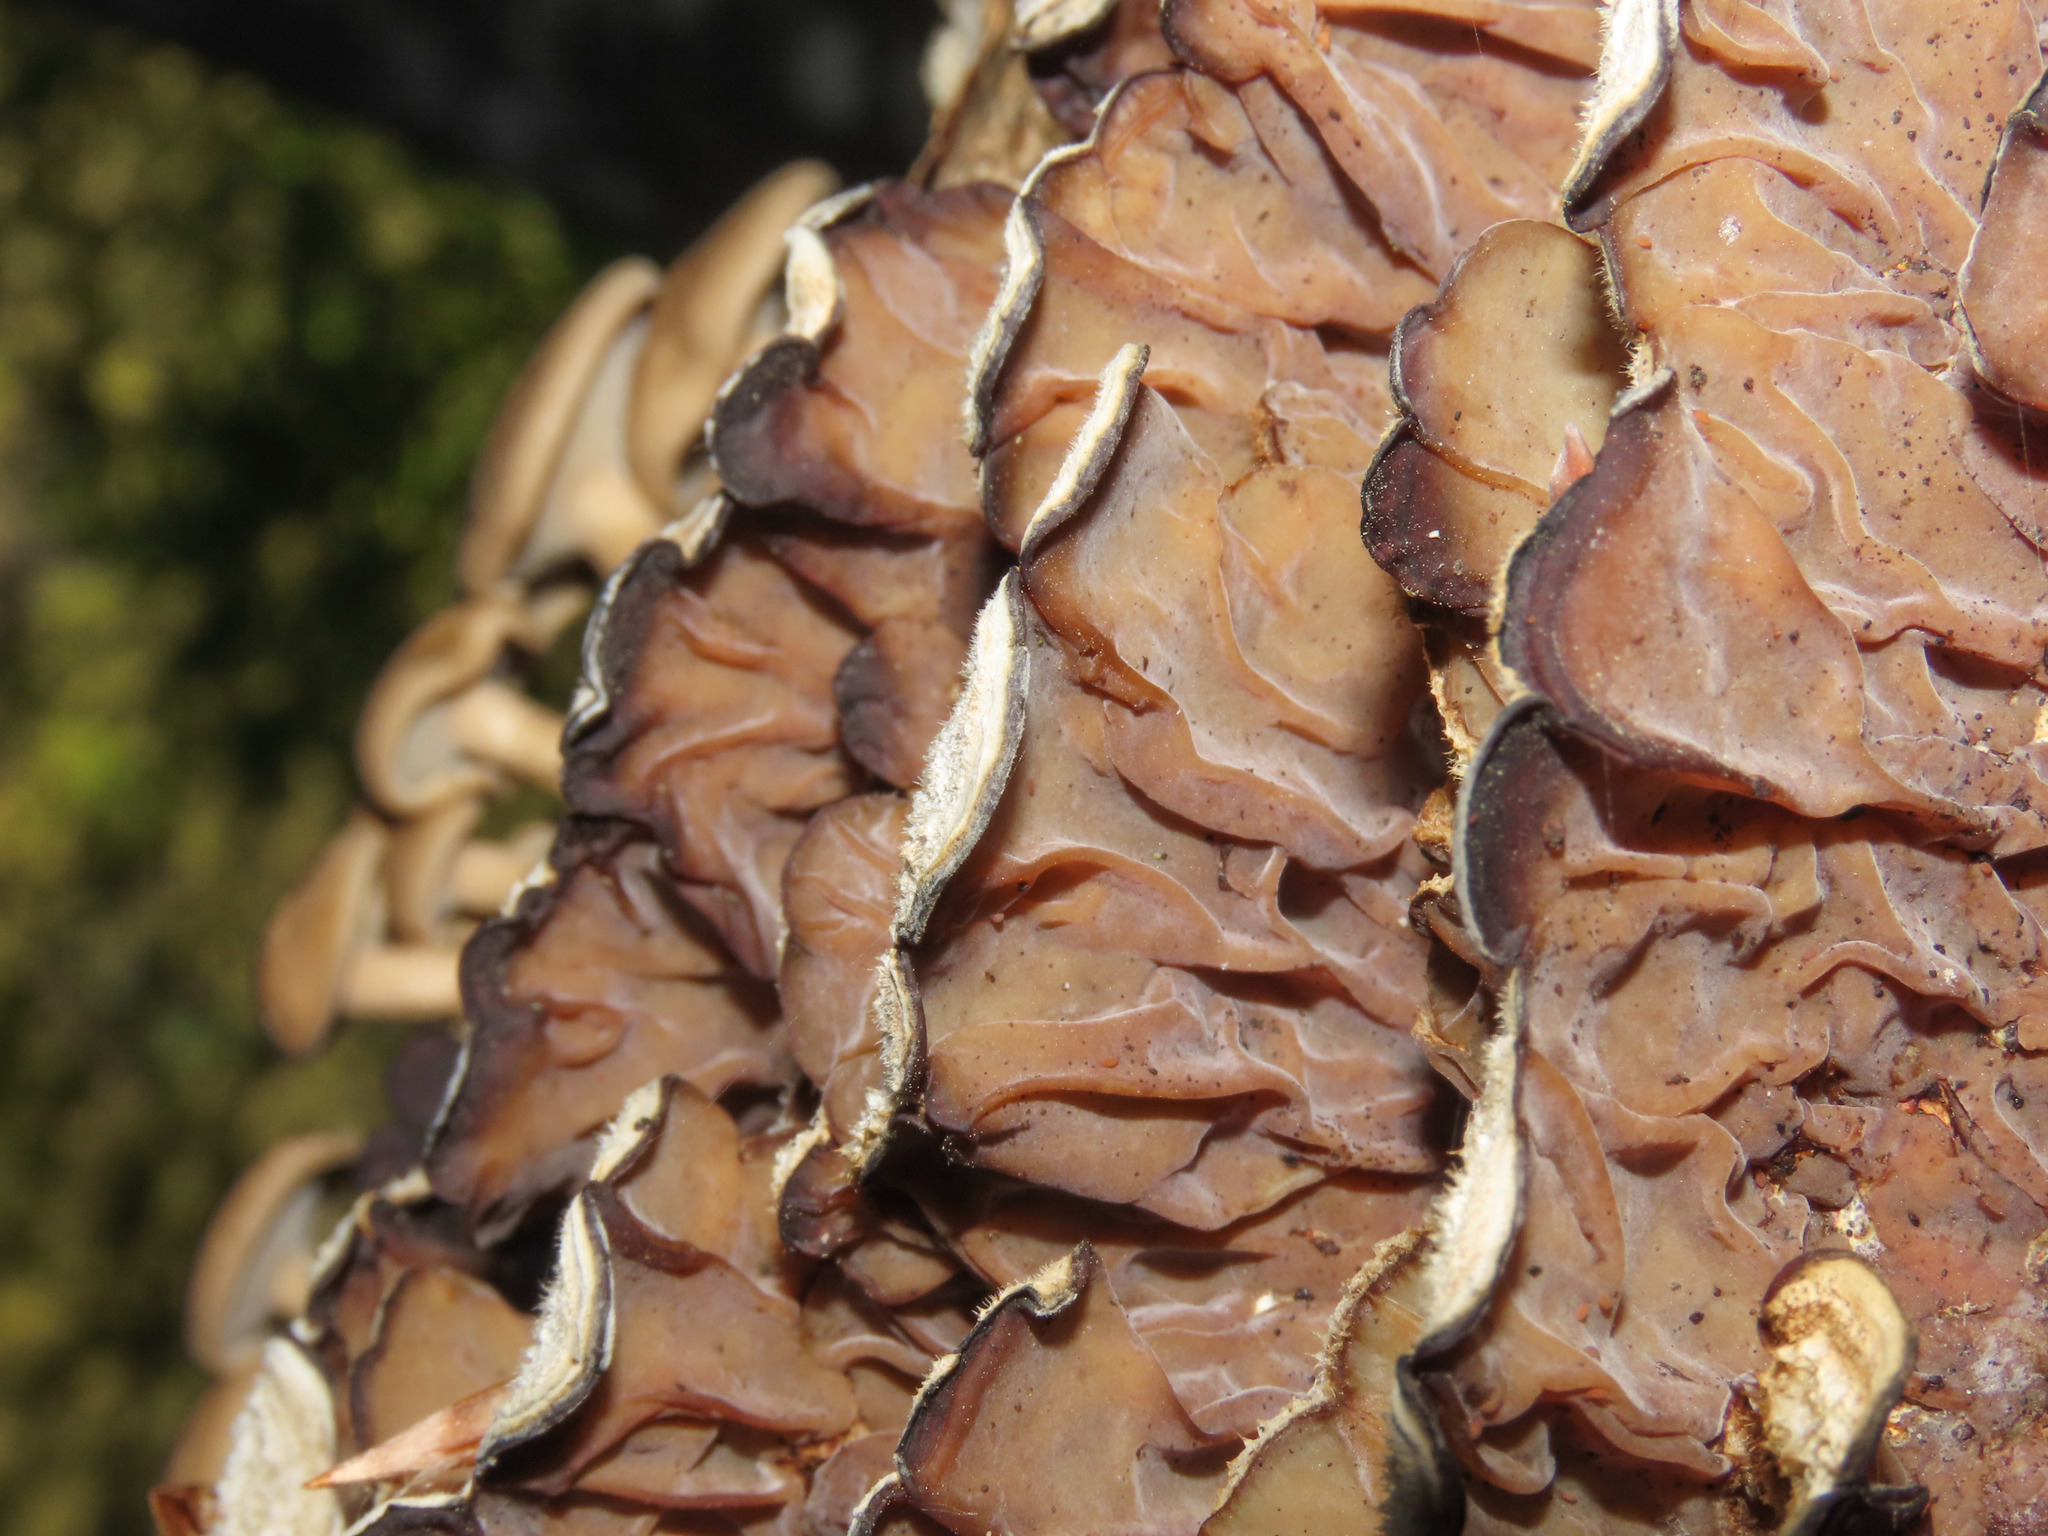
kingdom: Fungi
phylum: Basidiomycota
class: Agaricomycetes
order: Auriculariales
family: Auriculariaceae
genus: Auricularia
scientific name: Auricularia mesenterica
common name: Tripe fungus
